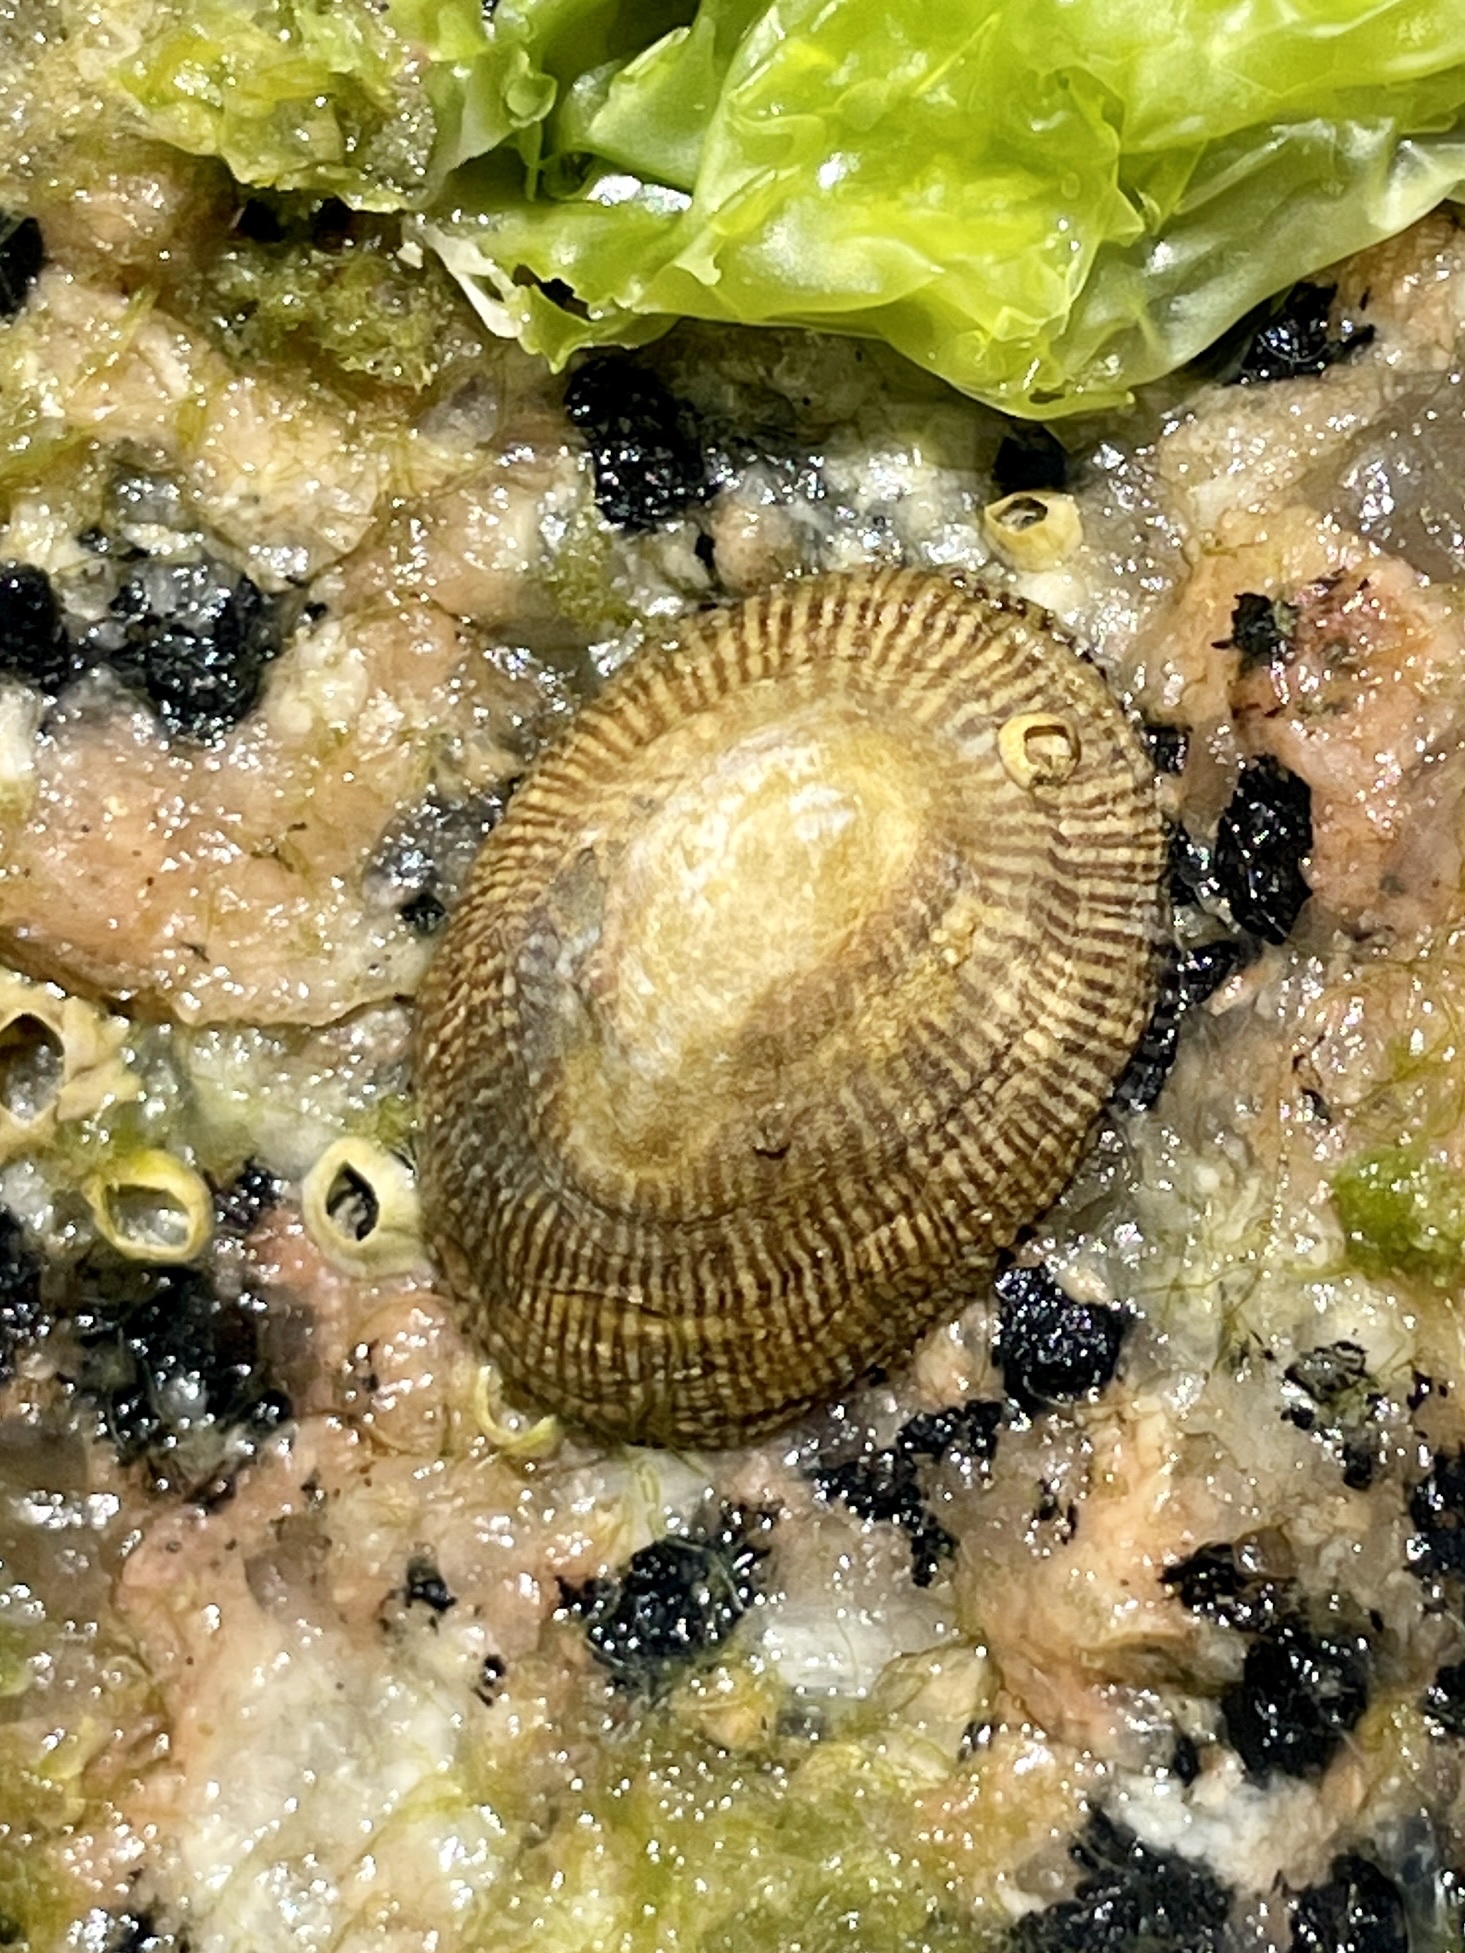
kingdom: Animalia
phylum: Mollusca
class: Gastropoda
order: Siphonariida
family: Siphonariidae
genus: Siphonaria
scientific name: Siphonaria naufragum
